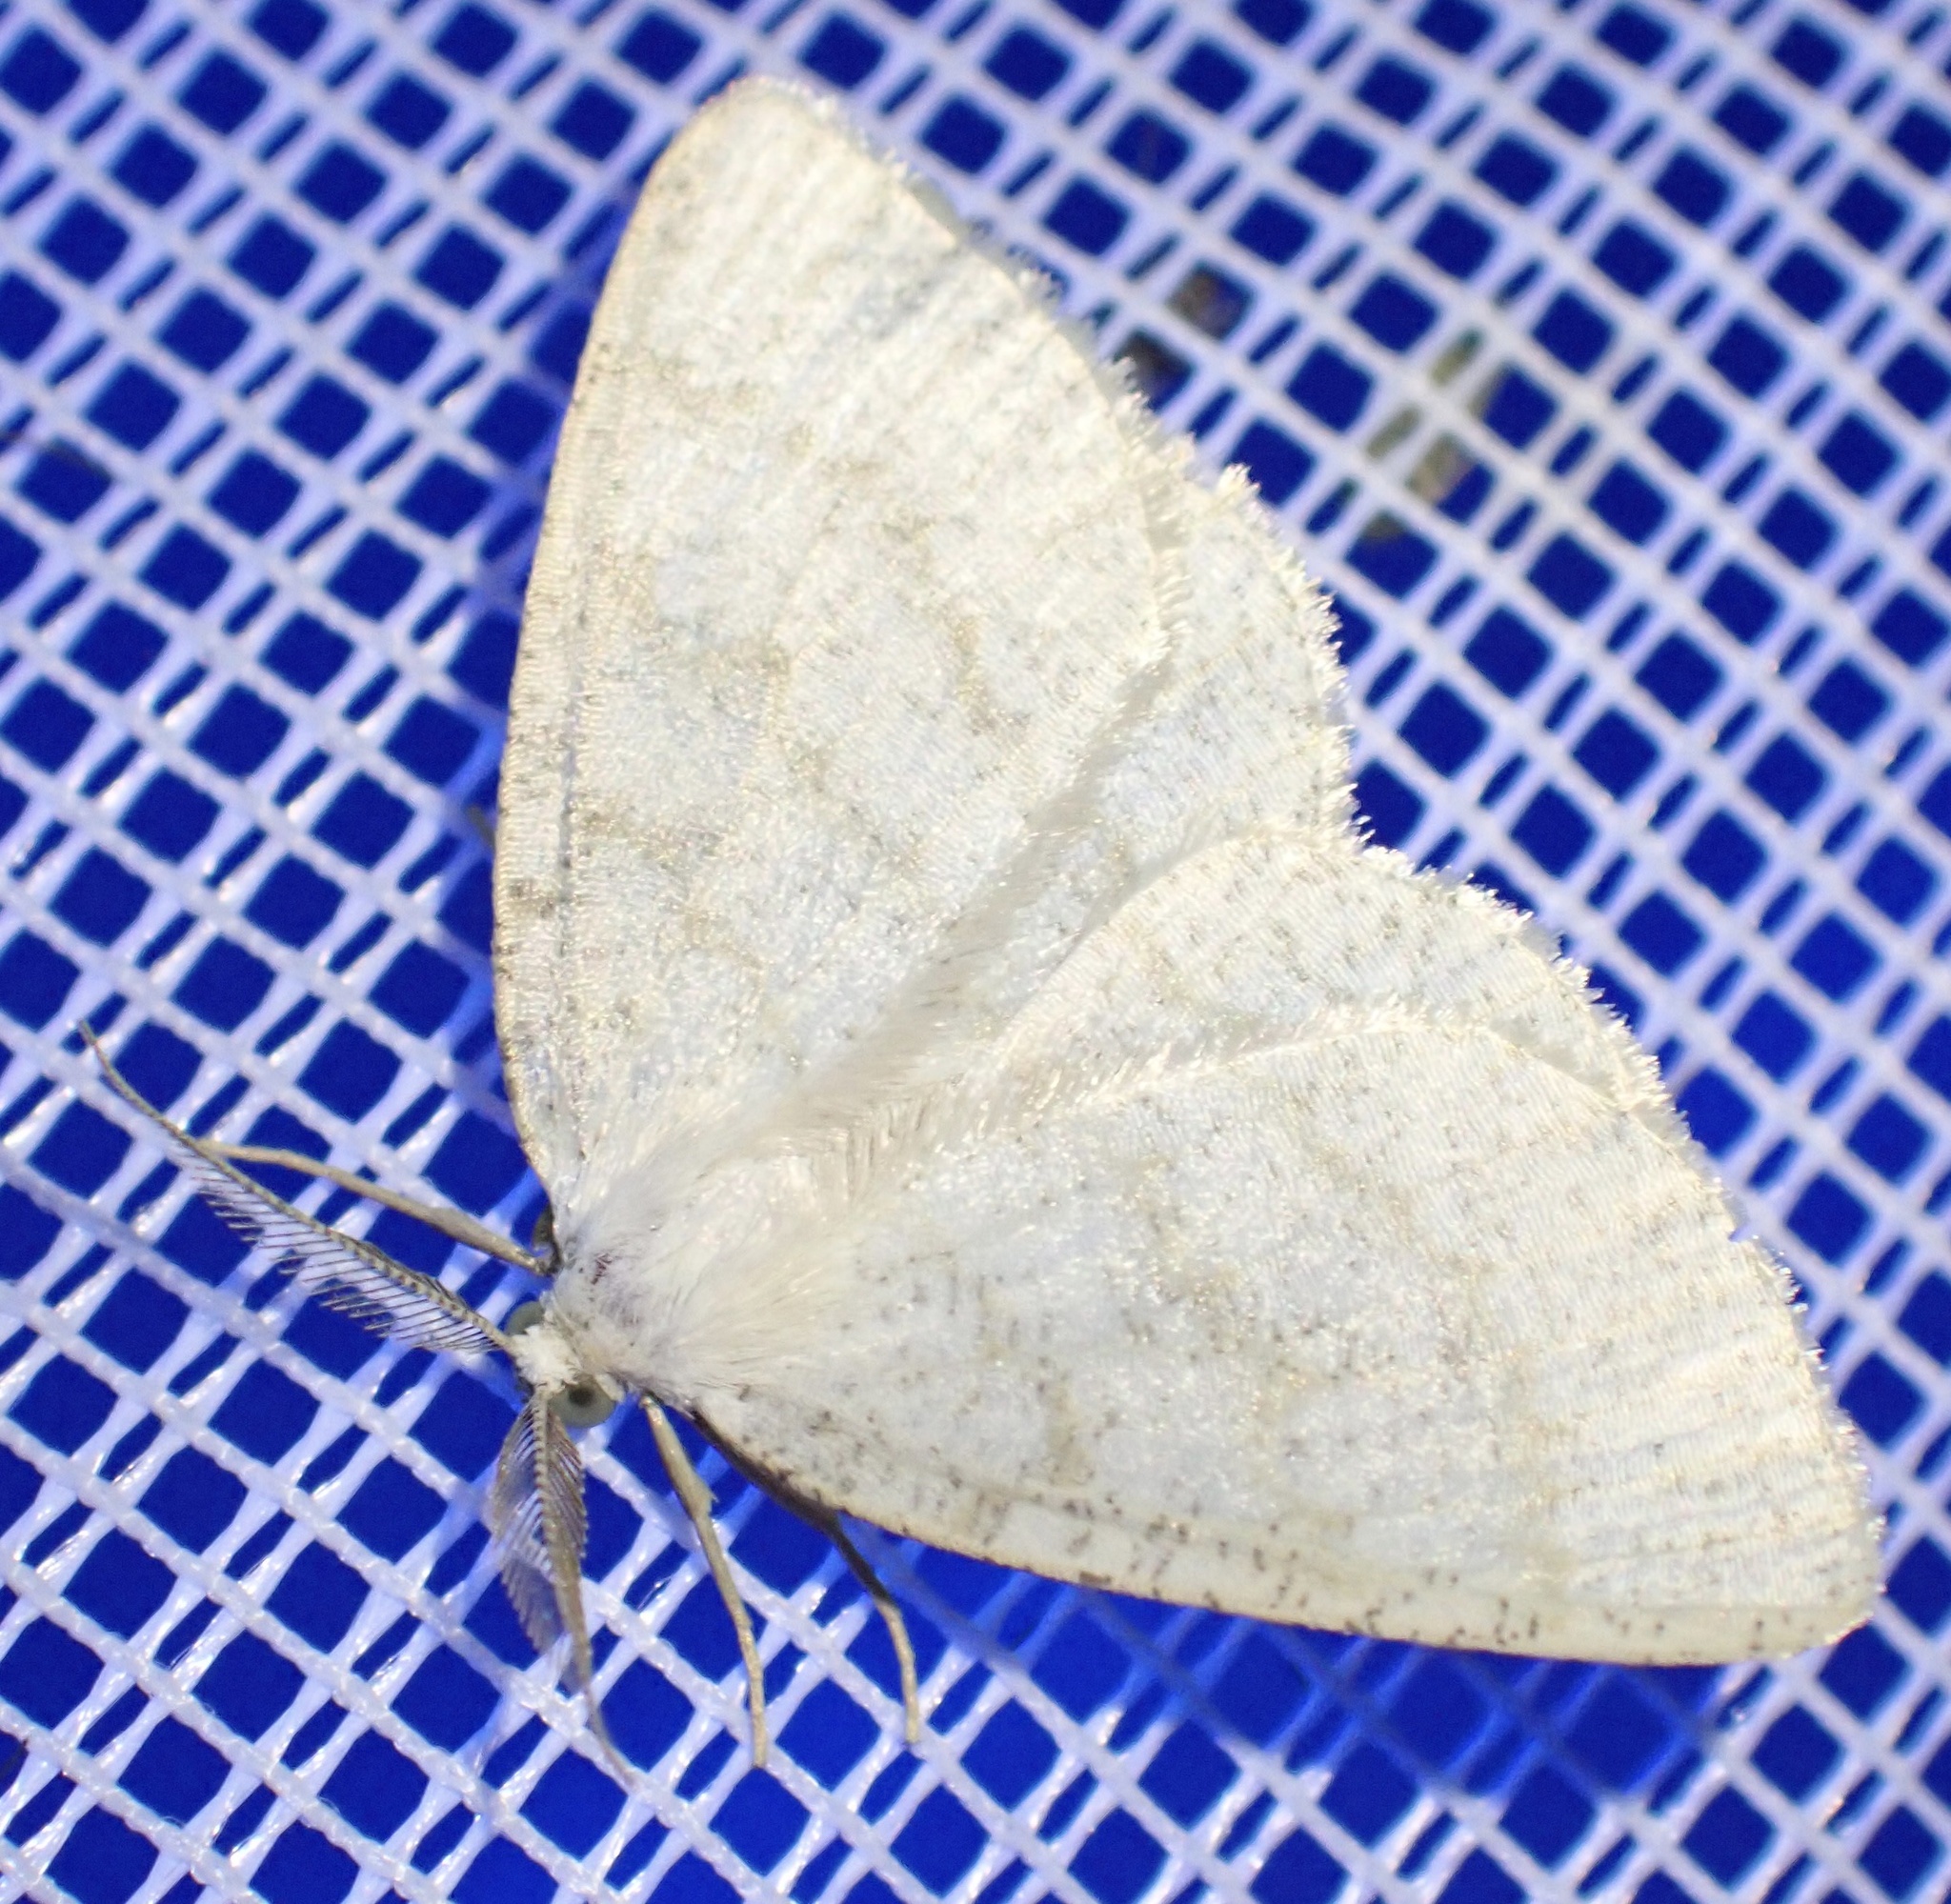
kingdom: Animalia
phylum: Arthropoda
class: Insecta
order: Lepidoptera
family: Geometridae
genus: Cabera
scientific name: Cabera exanthemata
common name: Common wave
